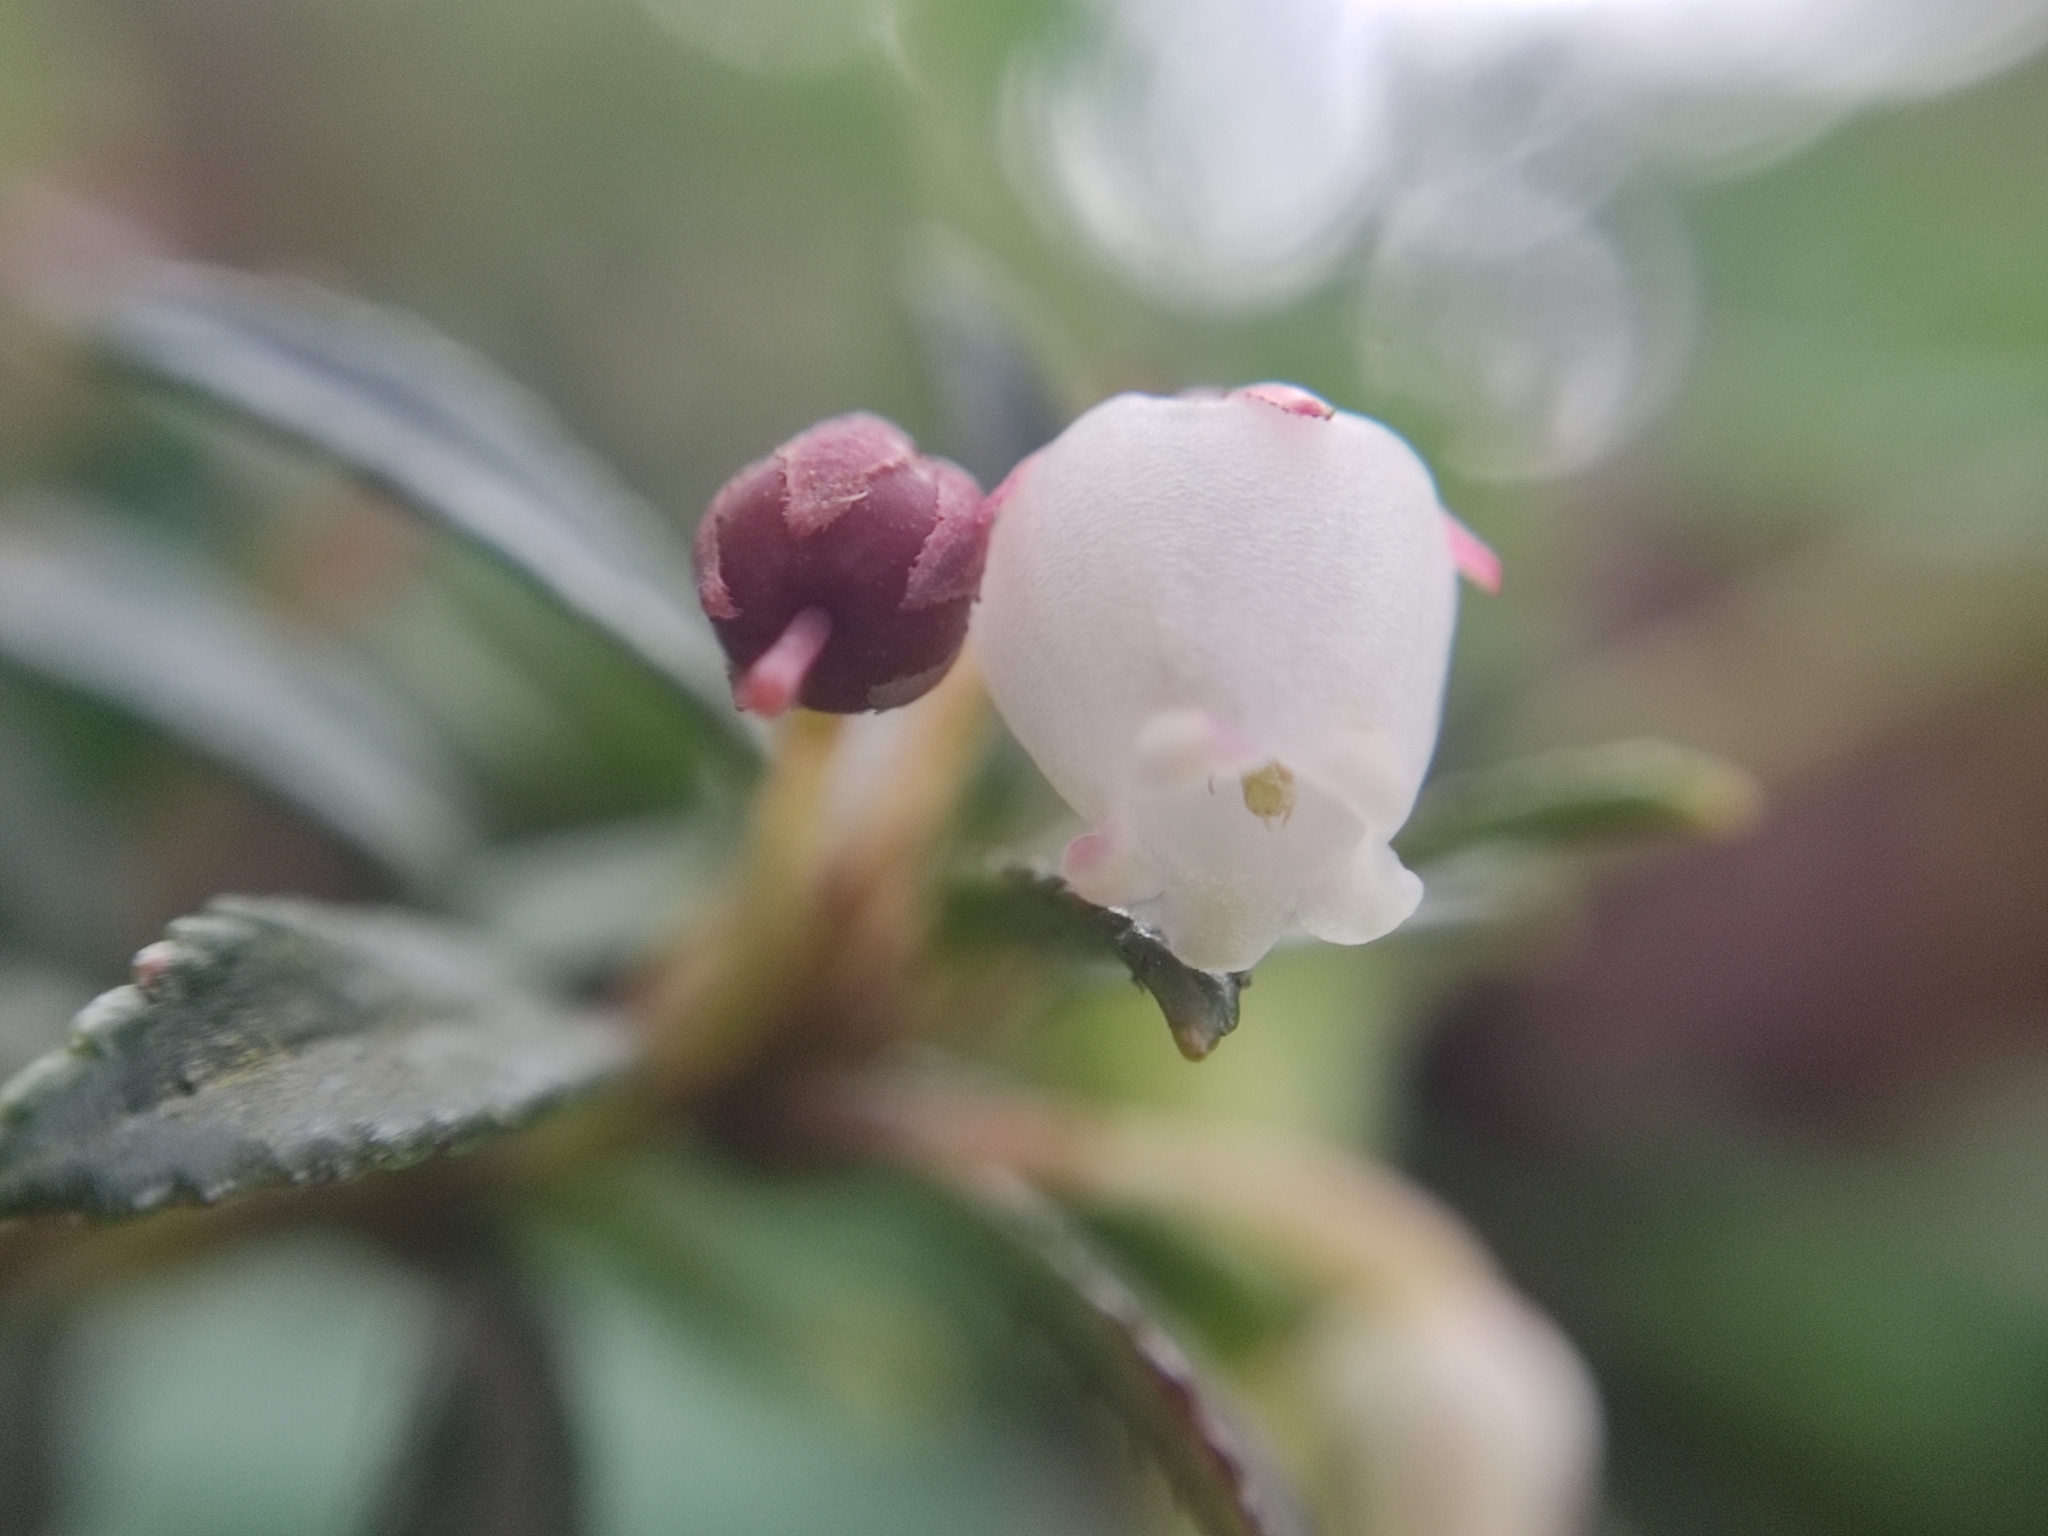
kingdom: Plantae
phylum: Tracheophyta
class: Magnoliopsida
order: Ericales
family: Ericaceae
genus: Gaultheria
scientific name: Gaultheria myrsinoides
